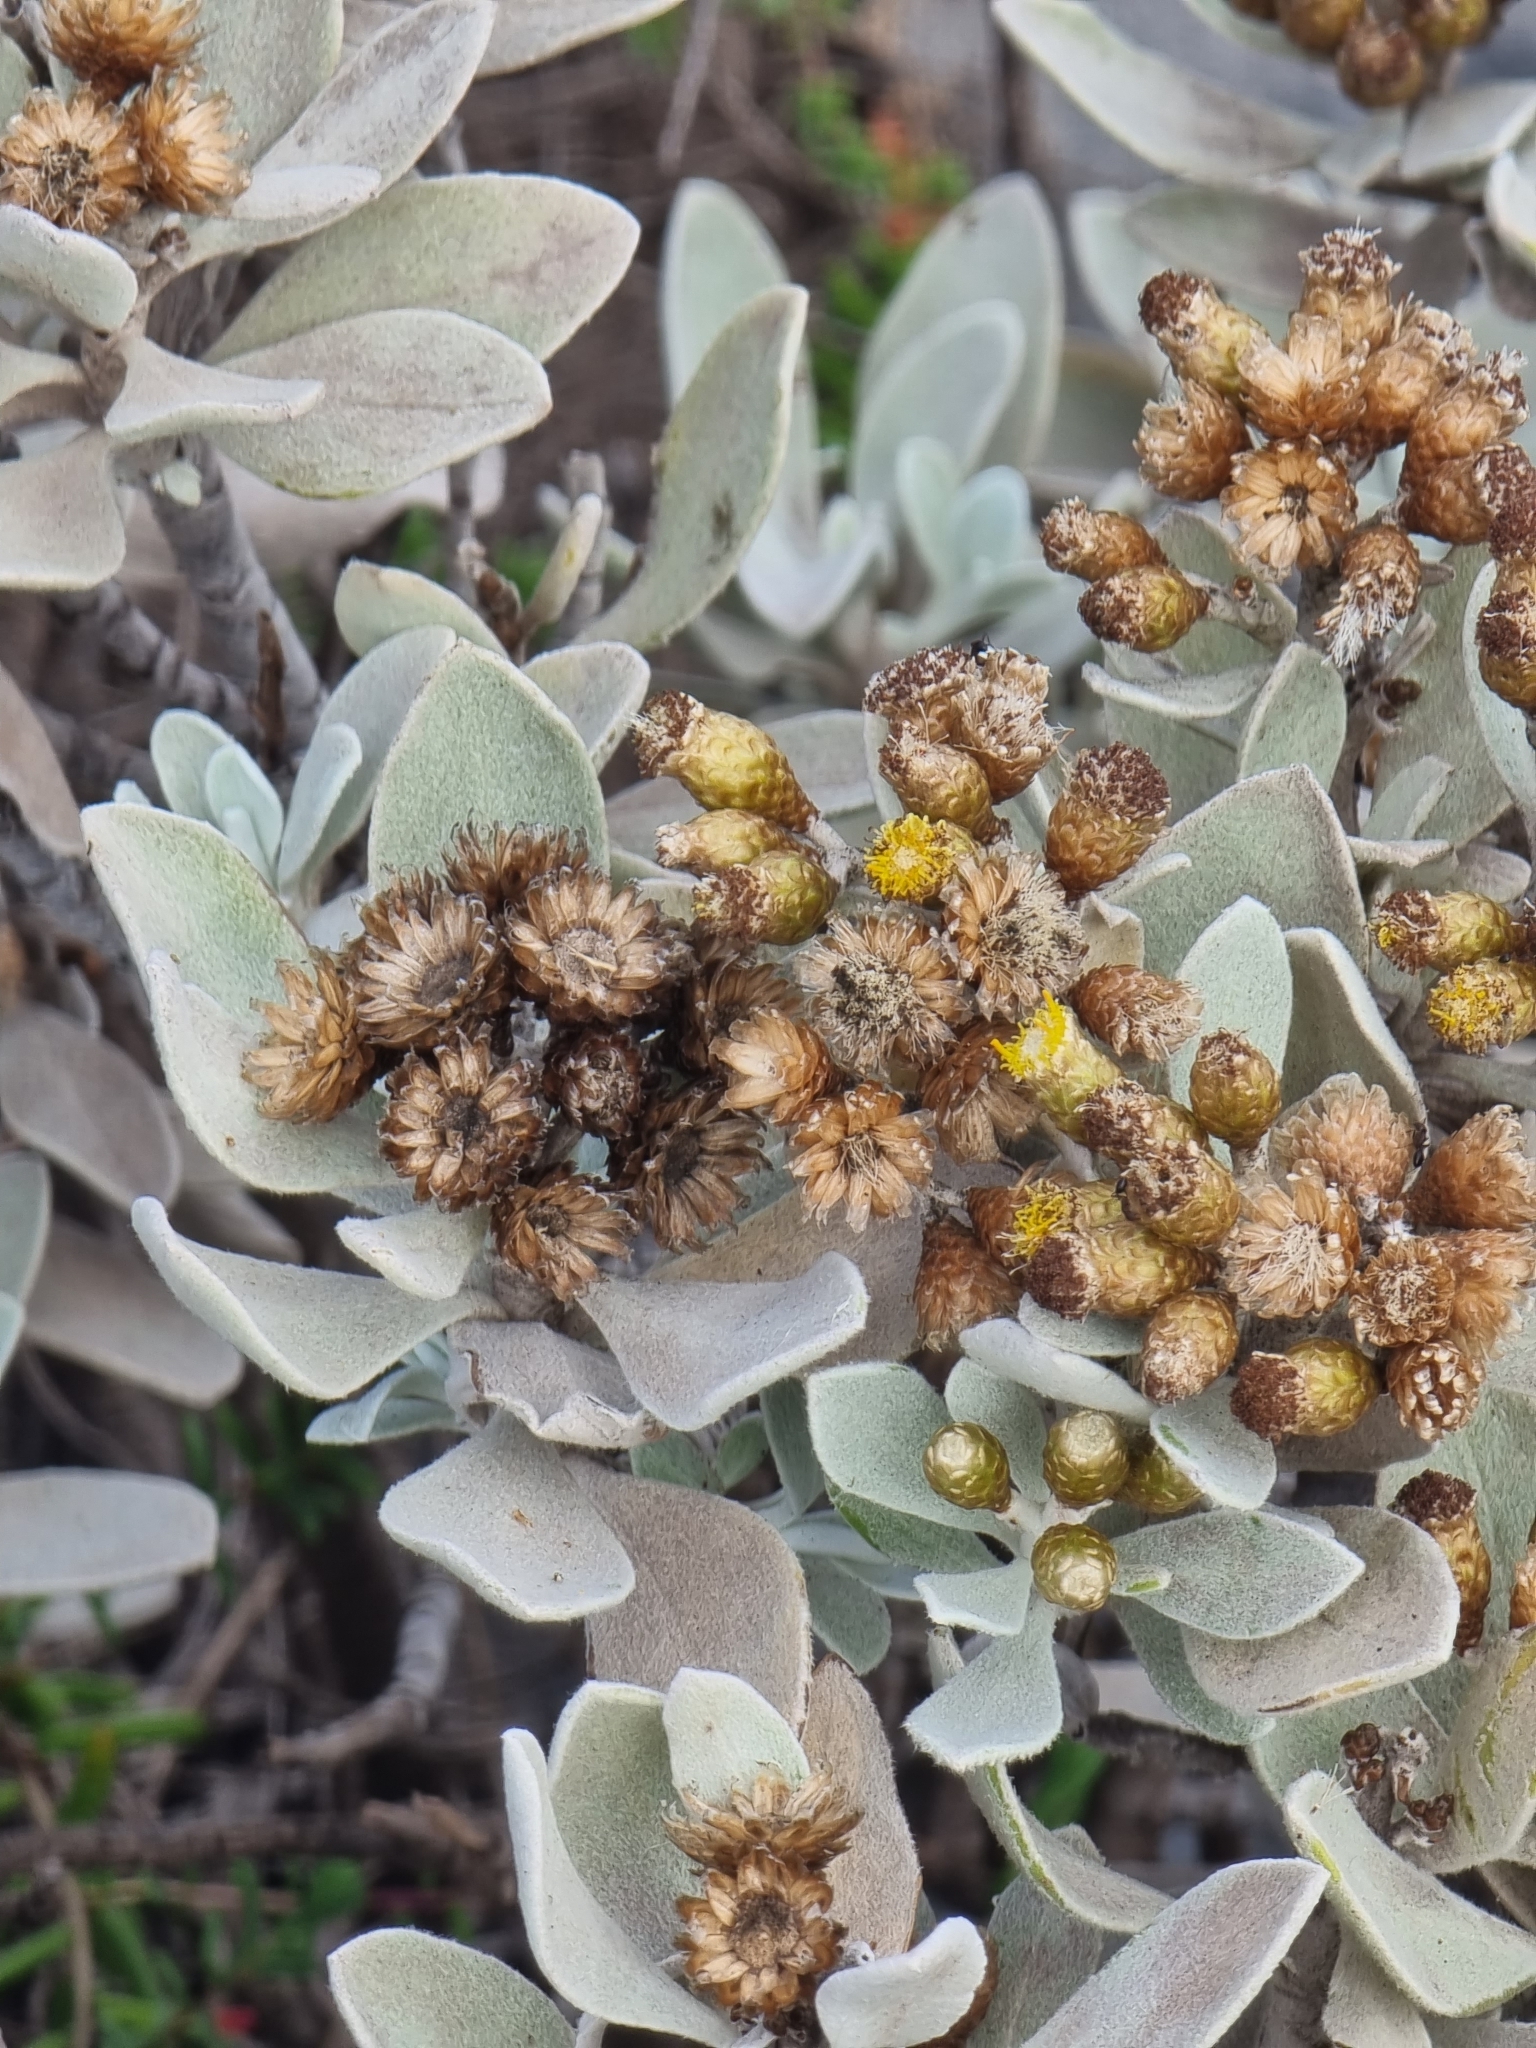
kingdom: Plantae
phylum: Tracheophyta
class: Magnoliopsida
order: Asterales
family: Asteraceae
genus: Helichrysum
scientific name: Helichrysum obconicum
